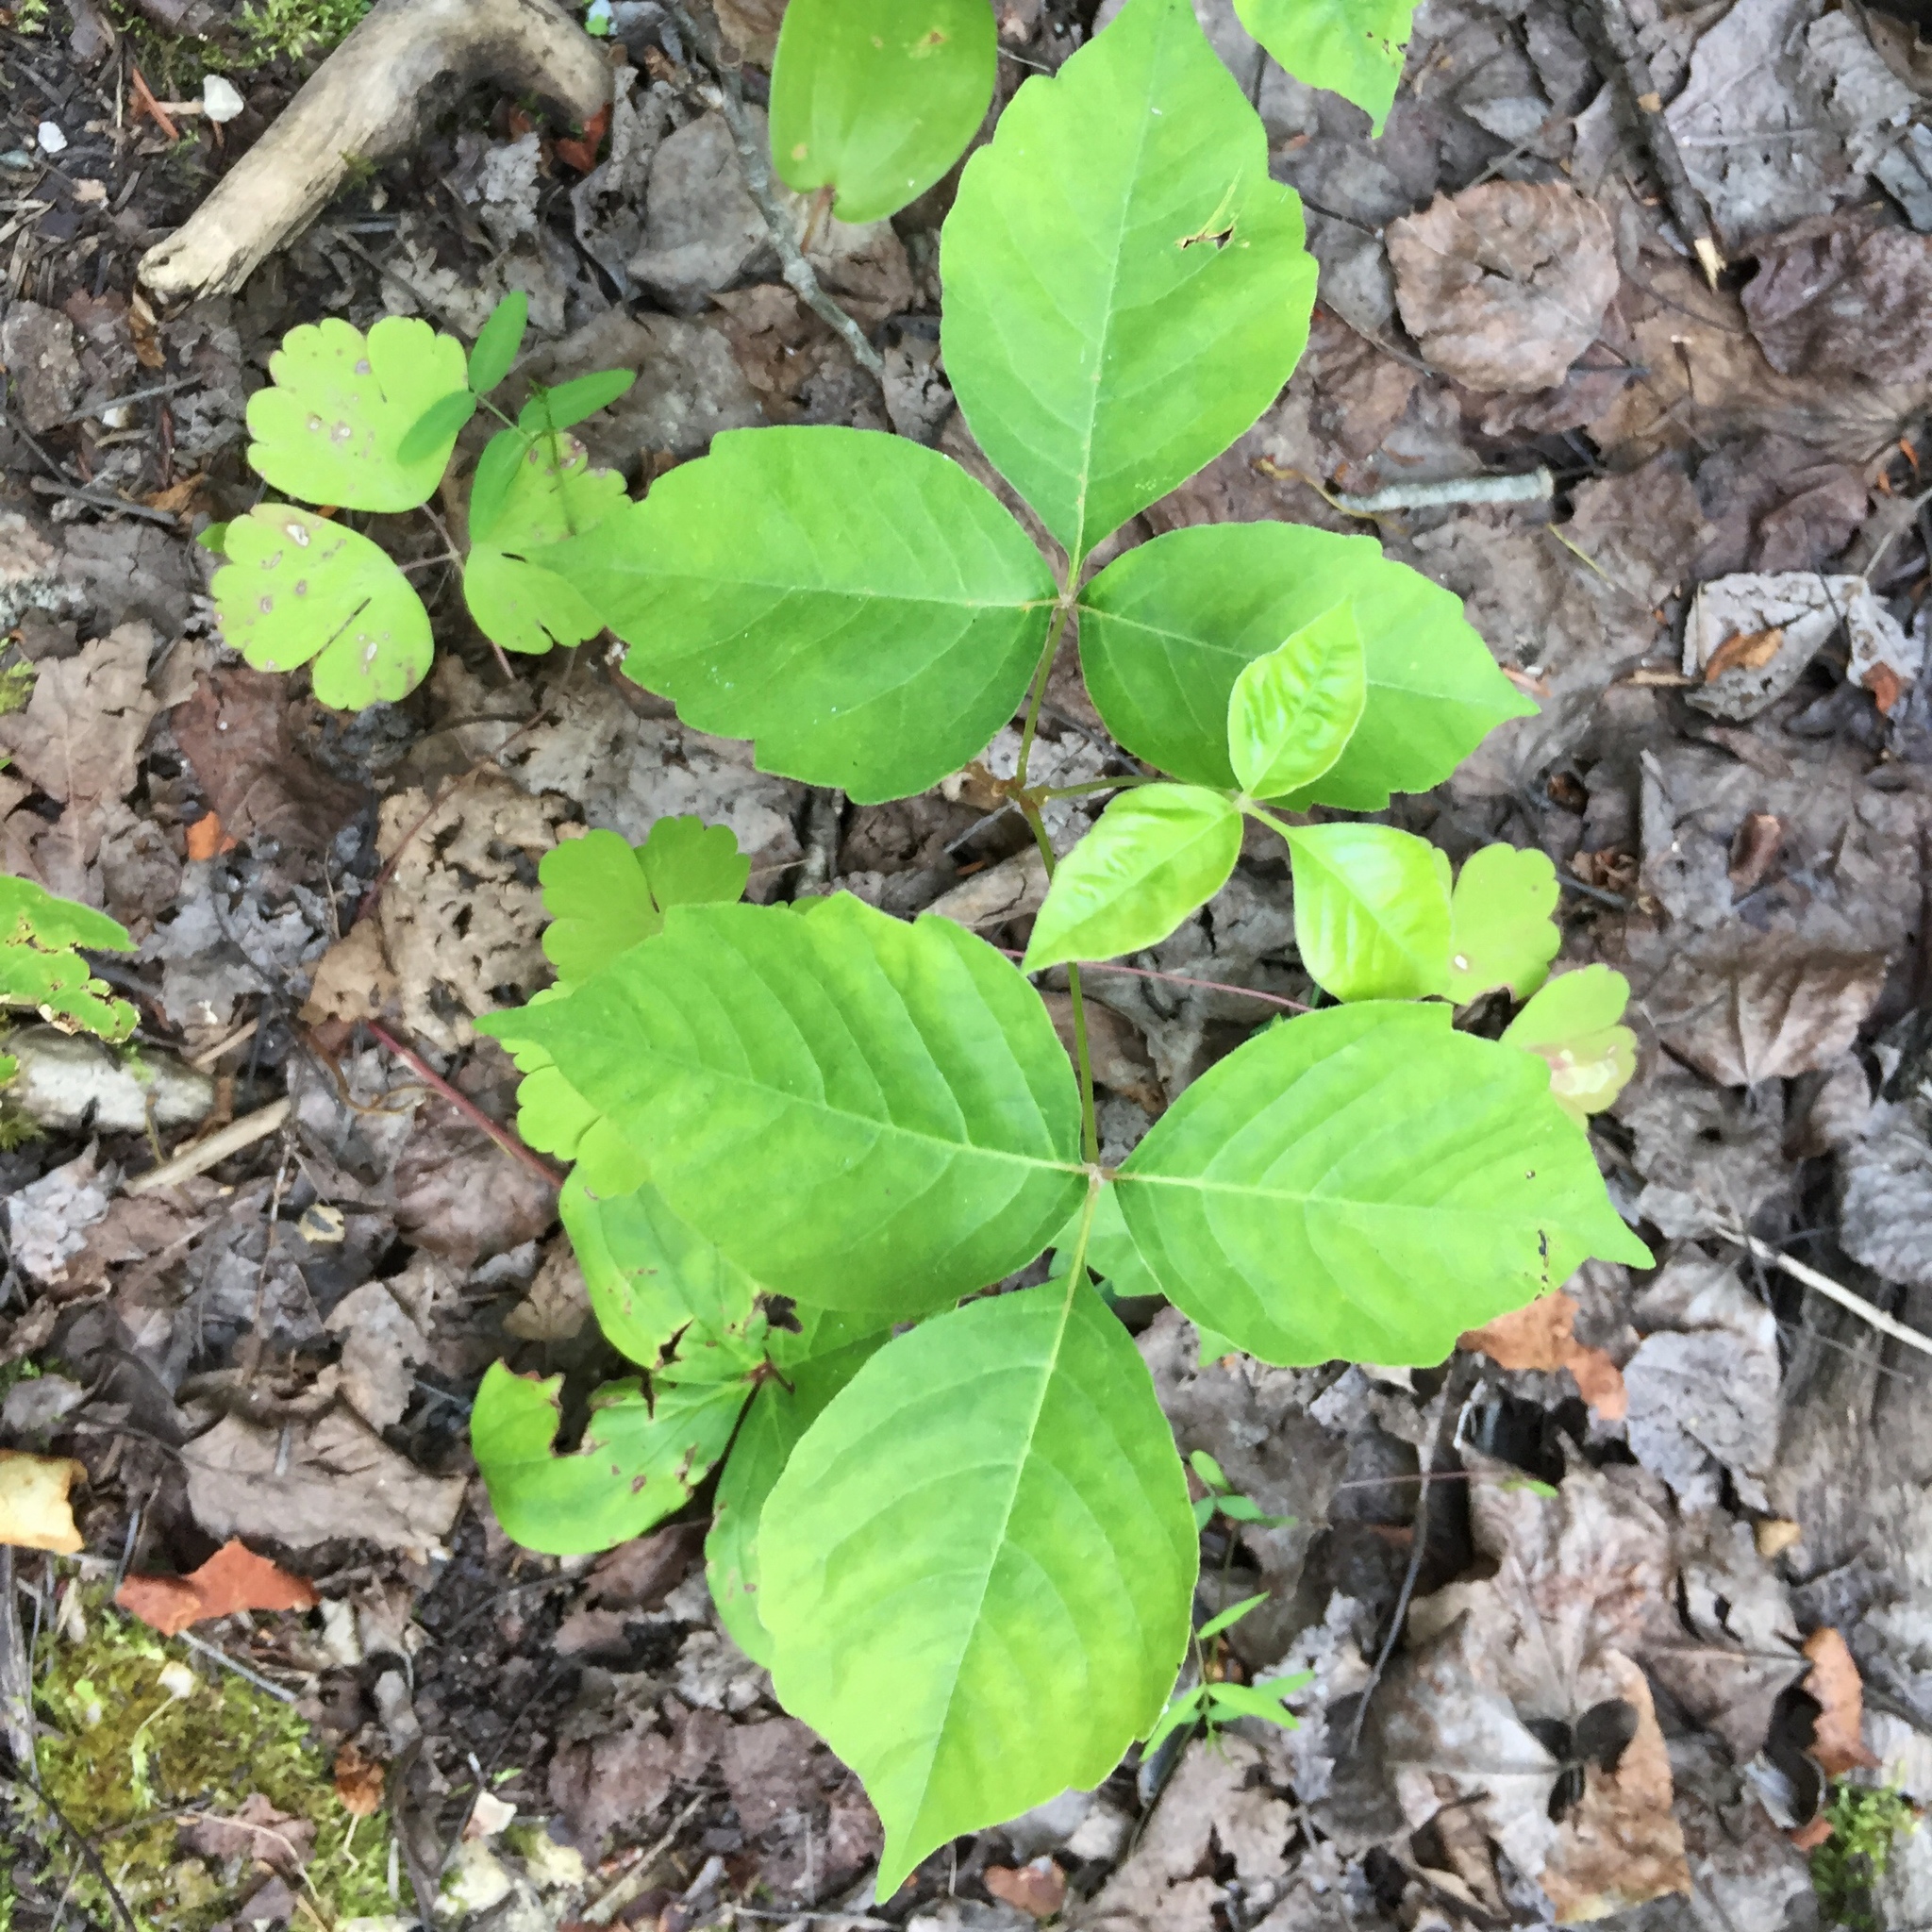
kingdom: Plantae
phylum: Tracheophyta
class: Magnoliopsida
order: Sapindales
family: Anacardiaceae
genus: Toxicodendron
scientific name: Toxicodendron rydbergii
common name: Rydberg's poison-ivy
